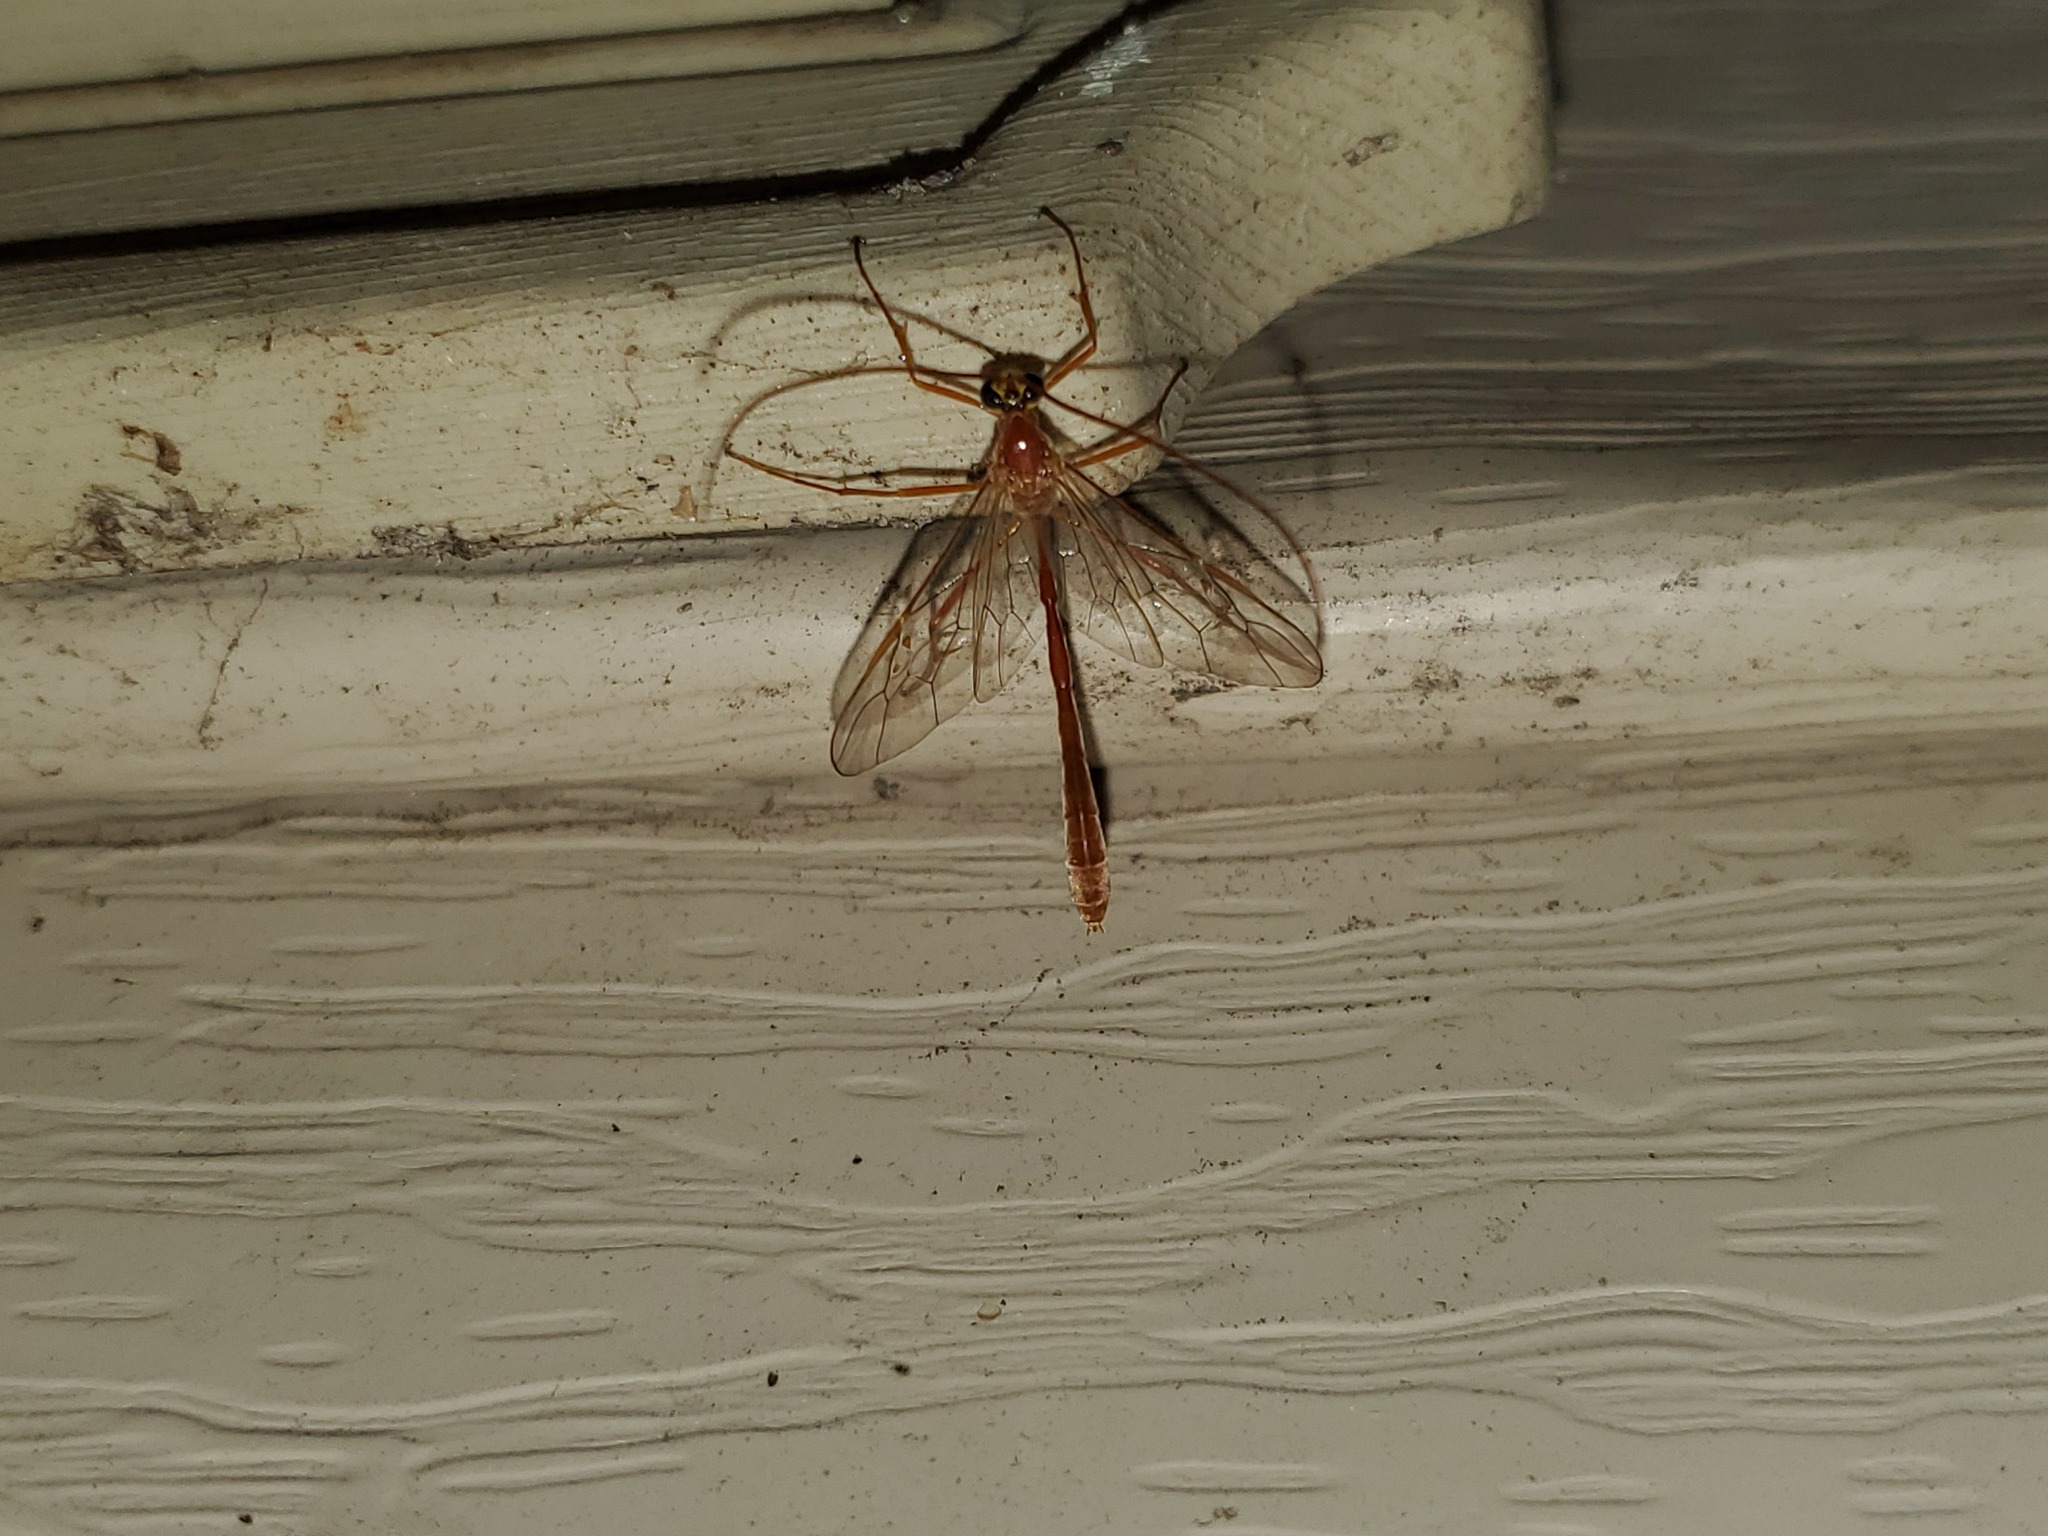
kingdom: Animalia
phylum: Arthropoda
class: Insecta
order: Hymenoptera
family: Ichneumonidae
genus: Enicospilus
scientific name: Enicospilus purgatus
